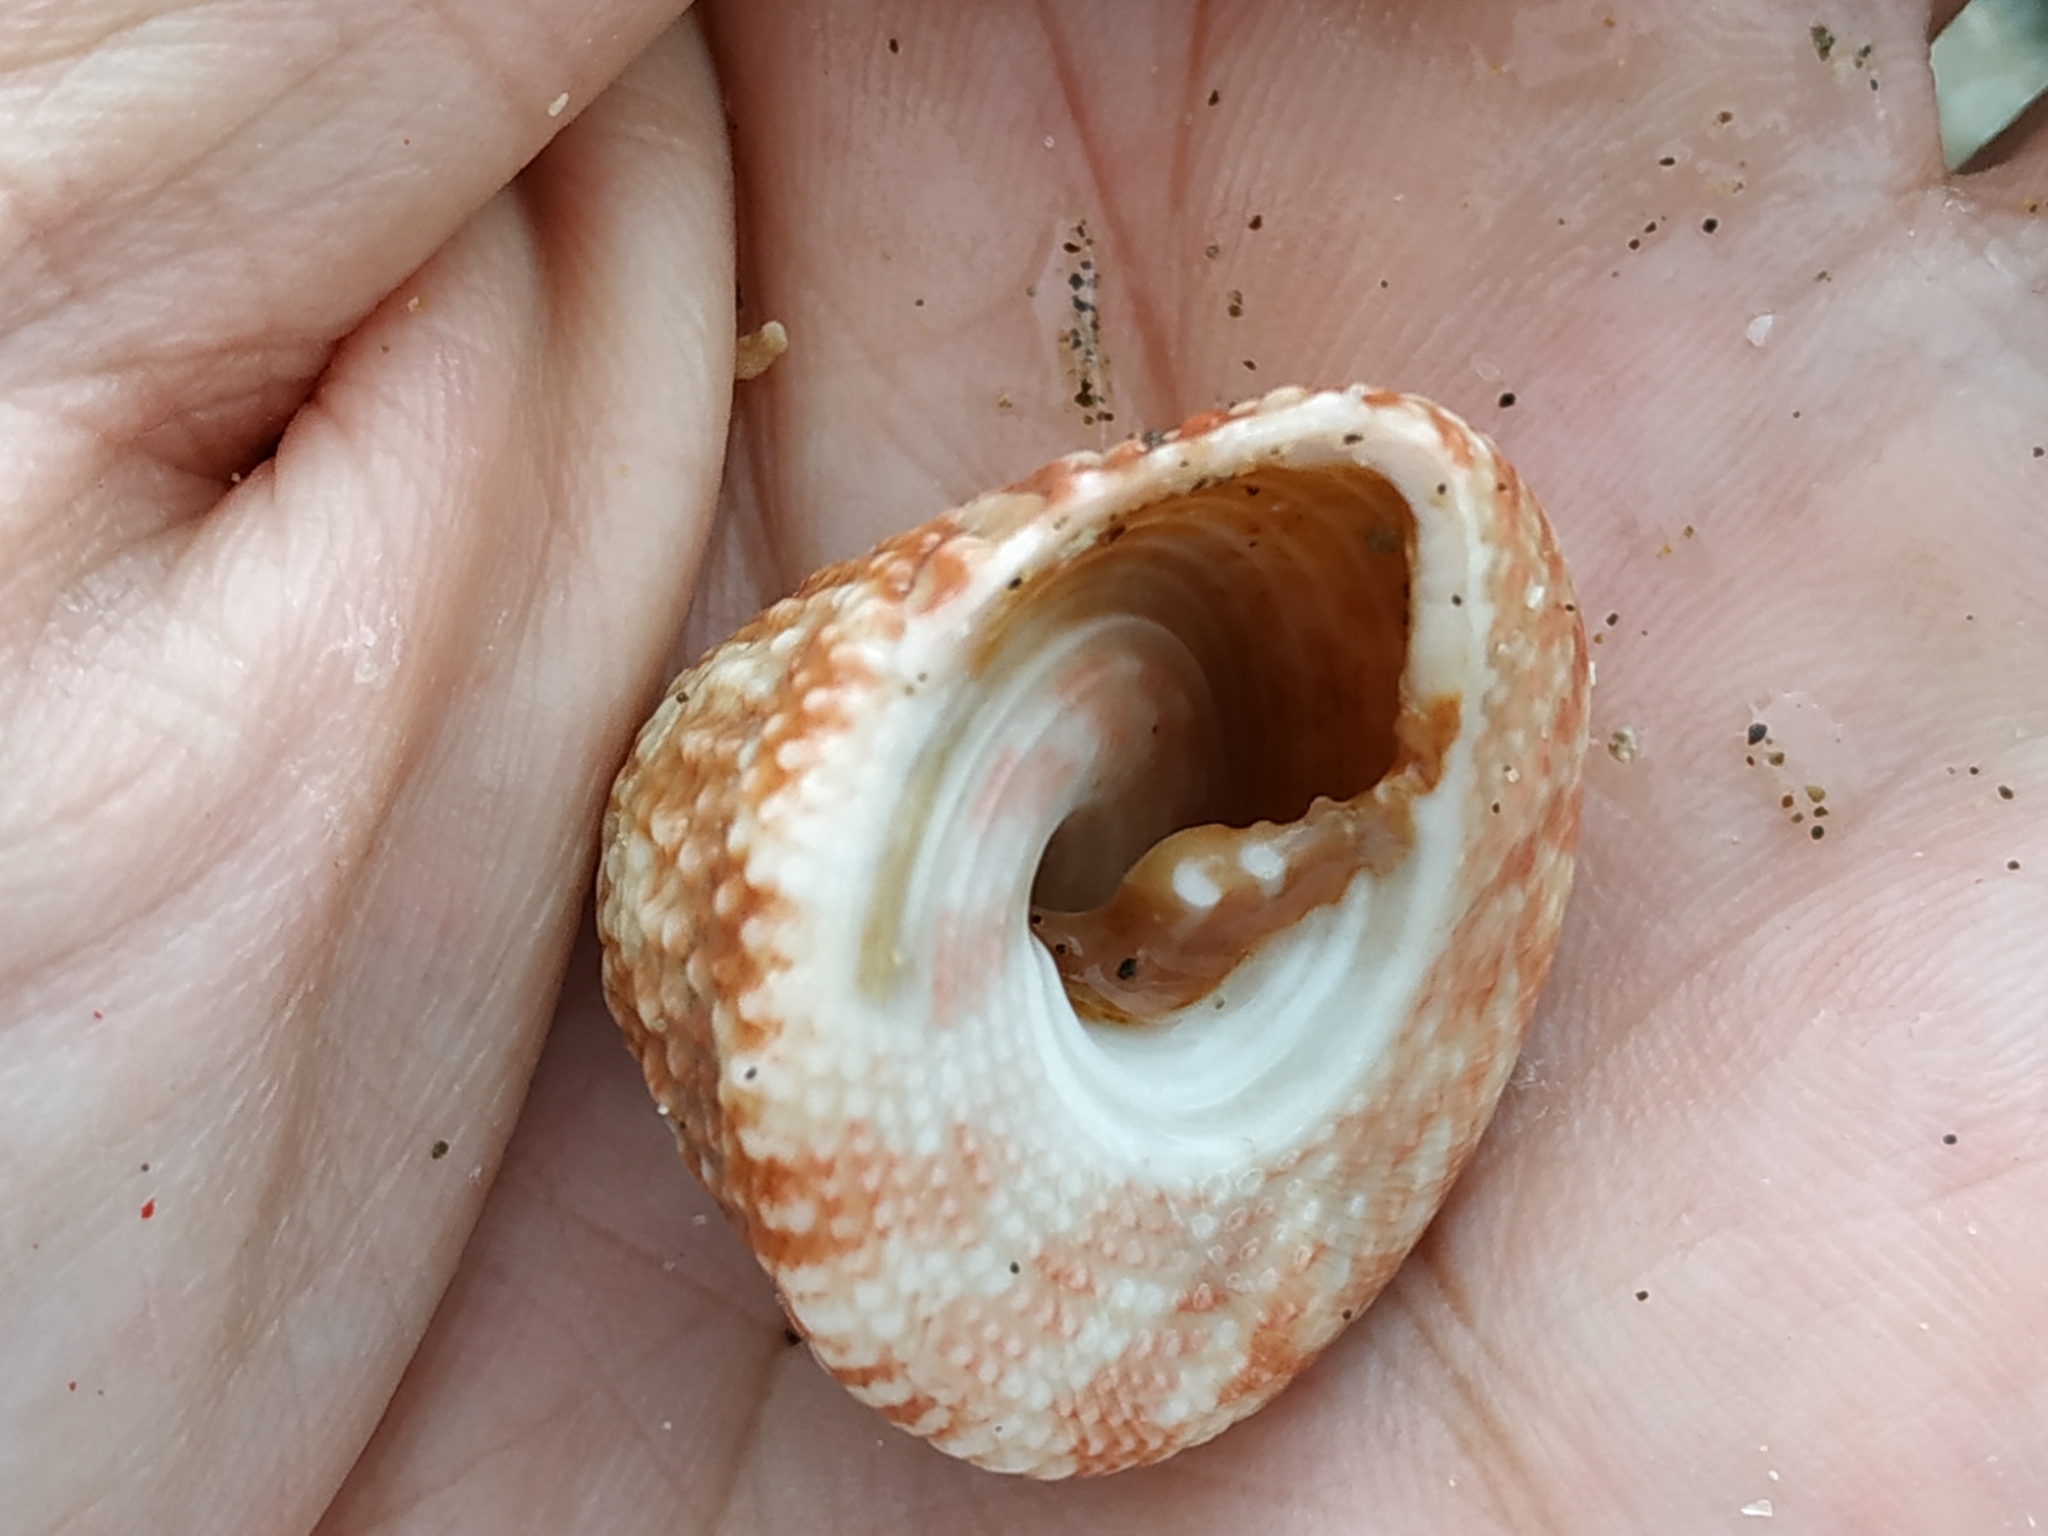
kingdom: Animalia
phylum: Mollusca
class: Gastropoda
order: Trochida
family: Trochidae
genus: Trochus
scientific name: Trochus stellatus
